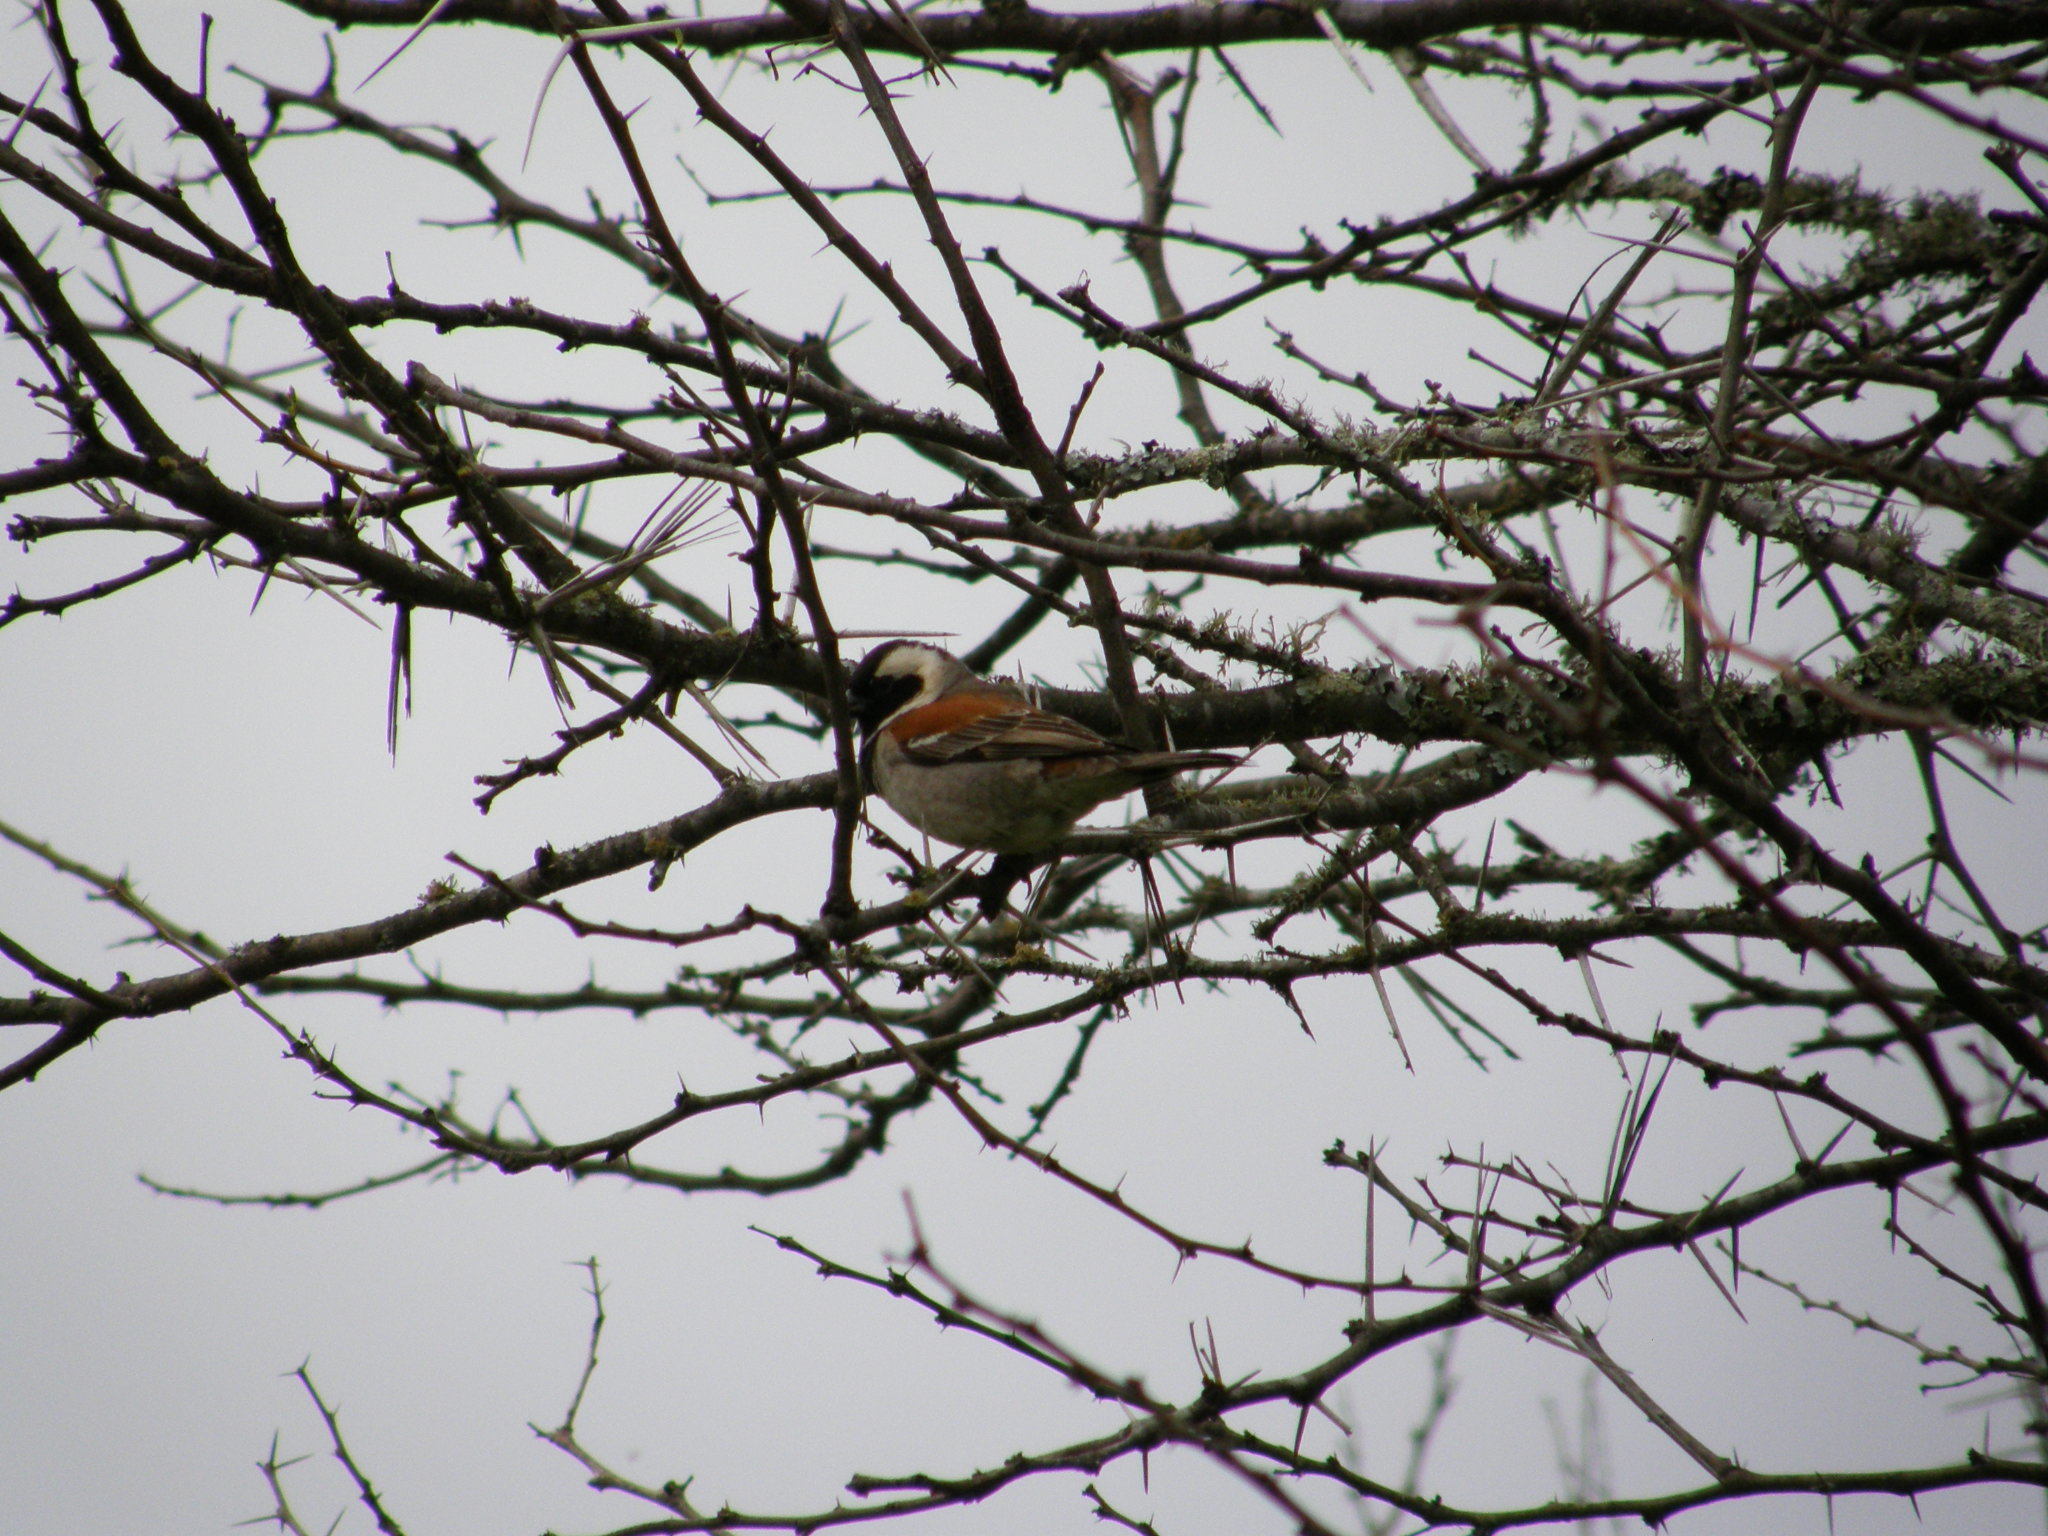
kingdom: Animalia
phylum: Chordata
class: Aves
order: Passeriformes
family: Passeridae
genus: Passer
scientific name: Passer melanurus
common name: Cape sparrow
